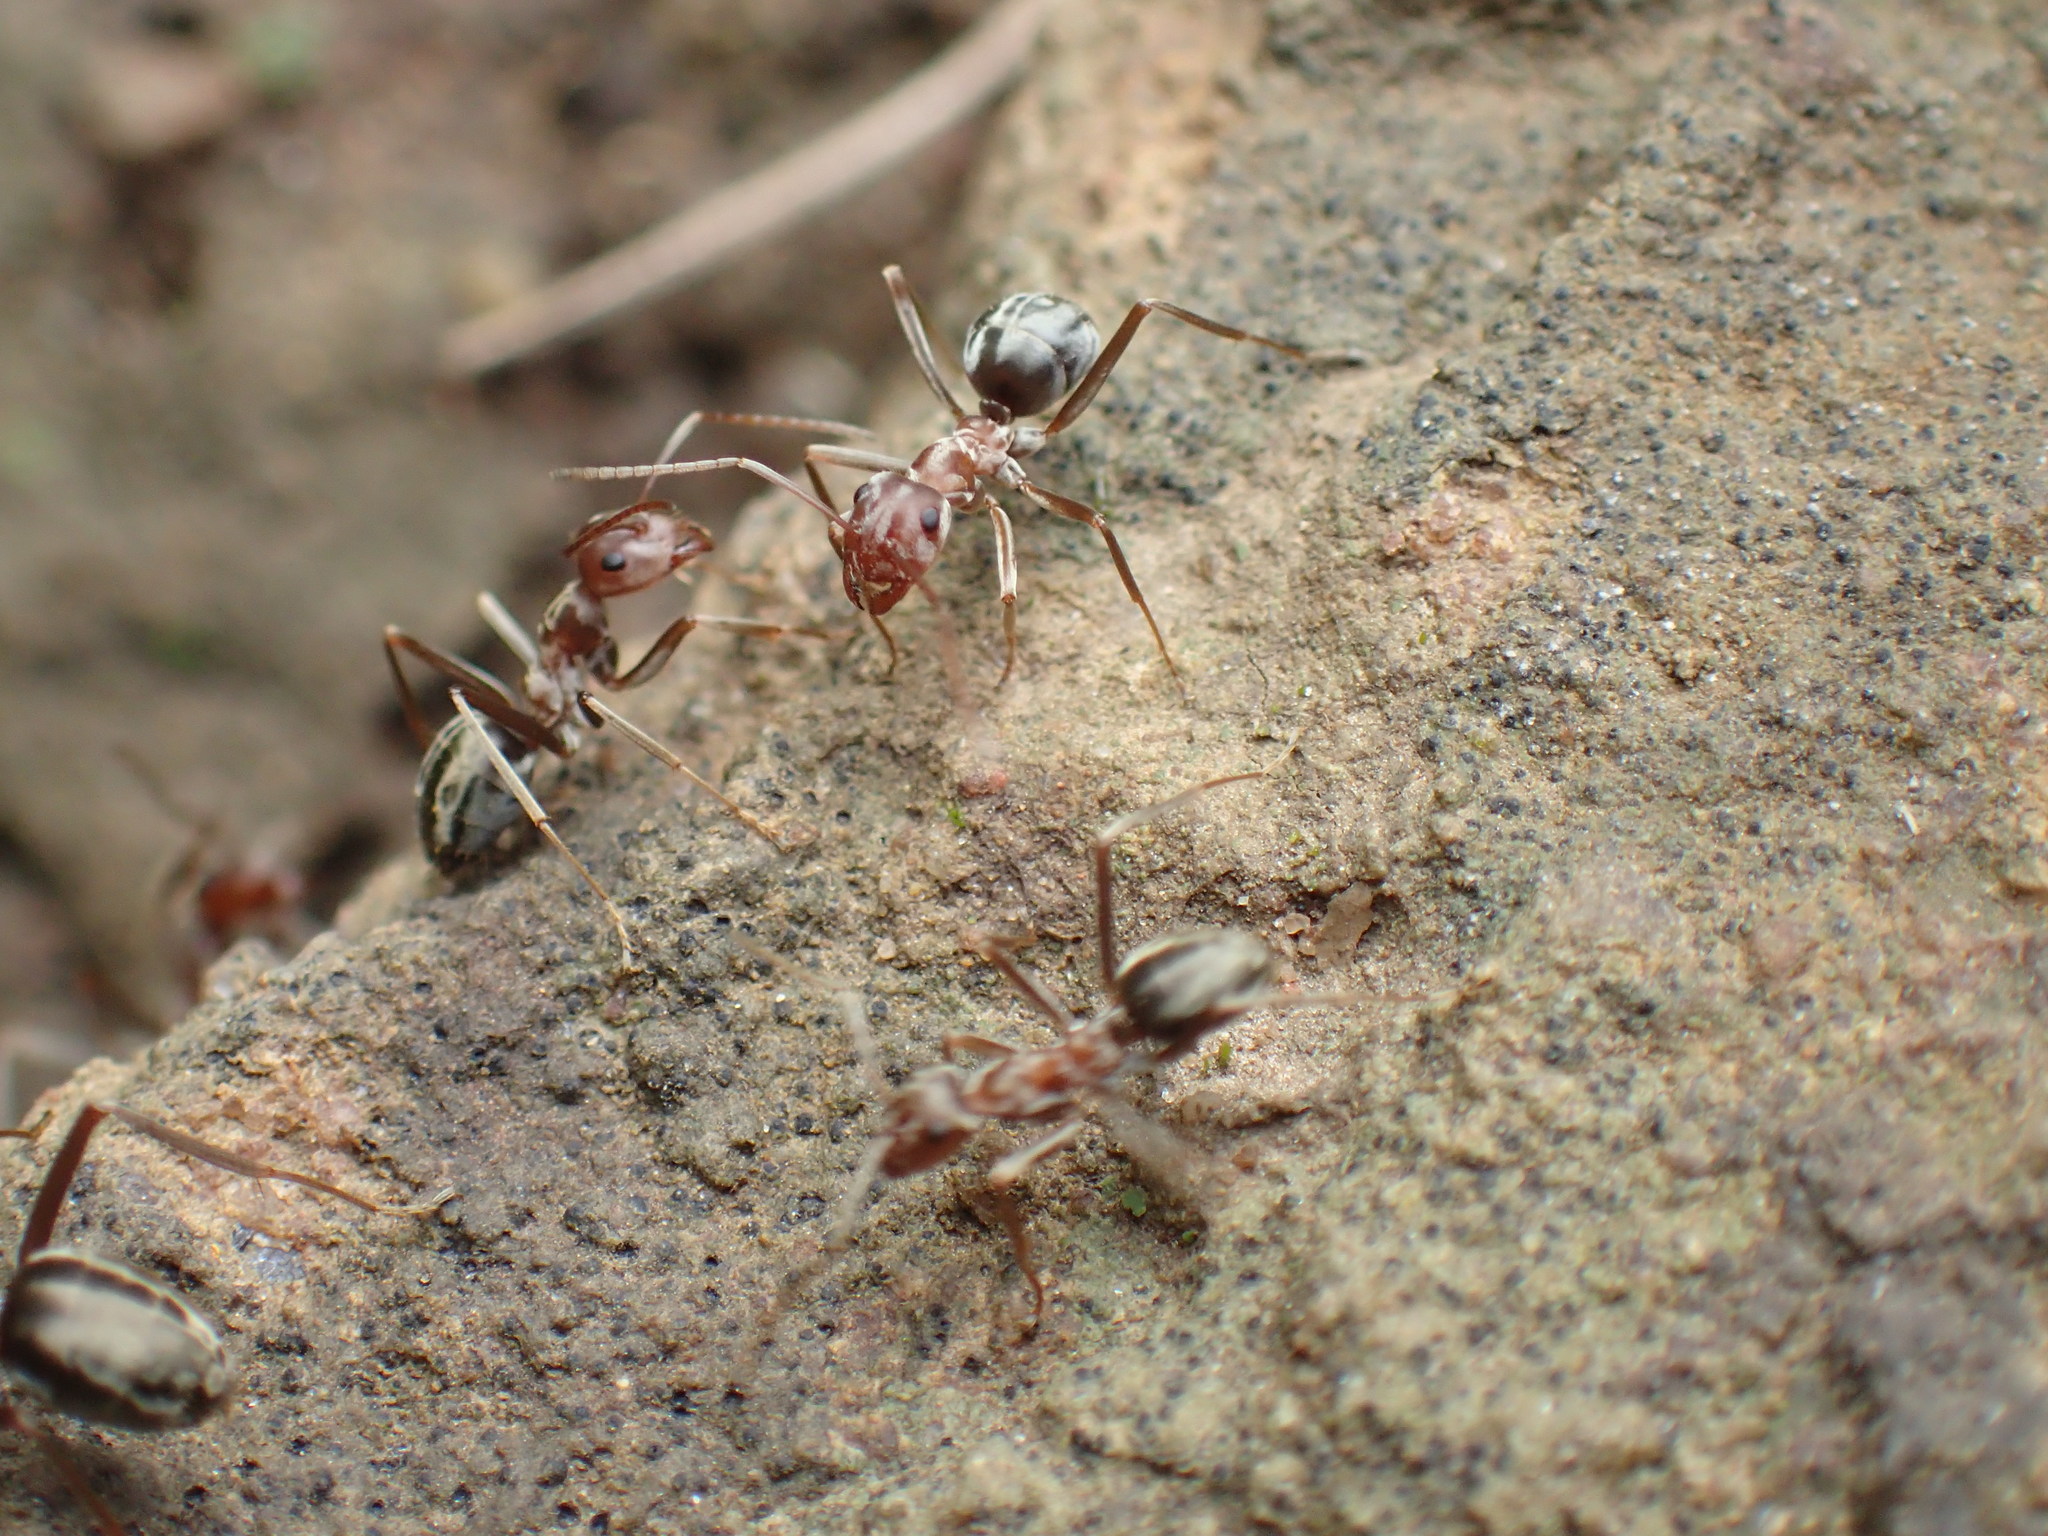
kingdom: Animalia
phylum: Arthropoda
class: Insecta
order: Hymenoptera
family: Formicidae
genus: Anoplolepis
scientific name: Anoplolepis custodiens
